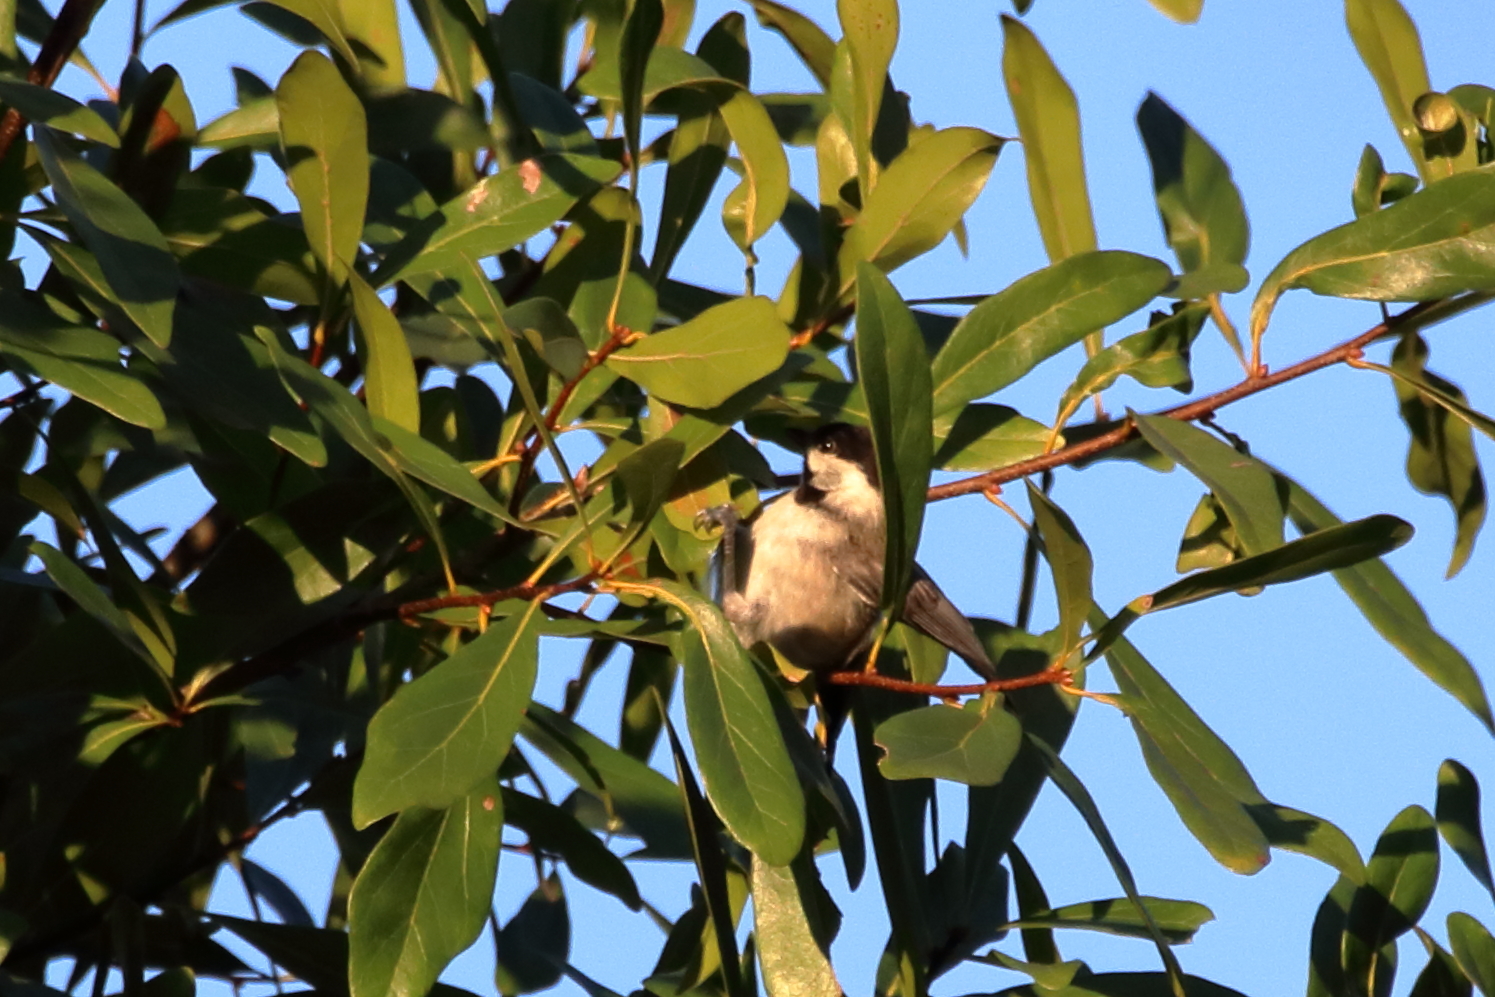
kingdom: Animalia
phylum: Chordata
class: Aves
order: Passeriformes
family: Paridae
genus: Poecile
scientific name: Poecile carolinensis
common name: Carolina chickadee
